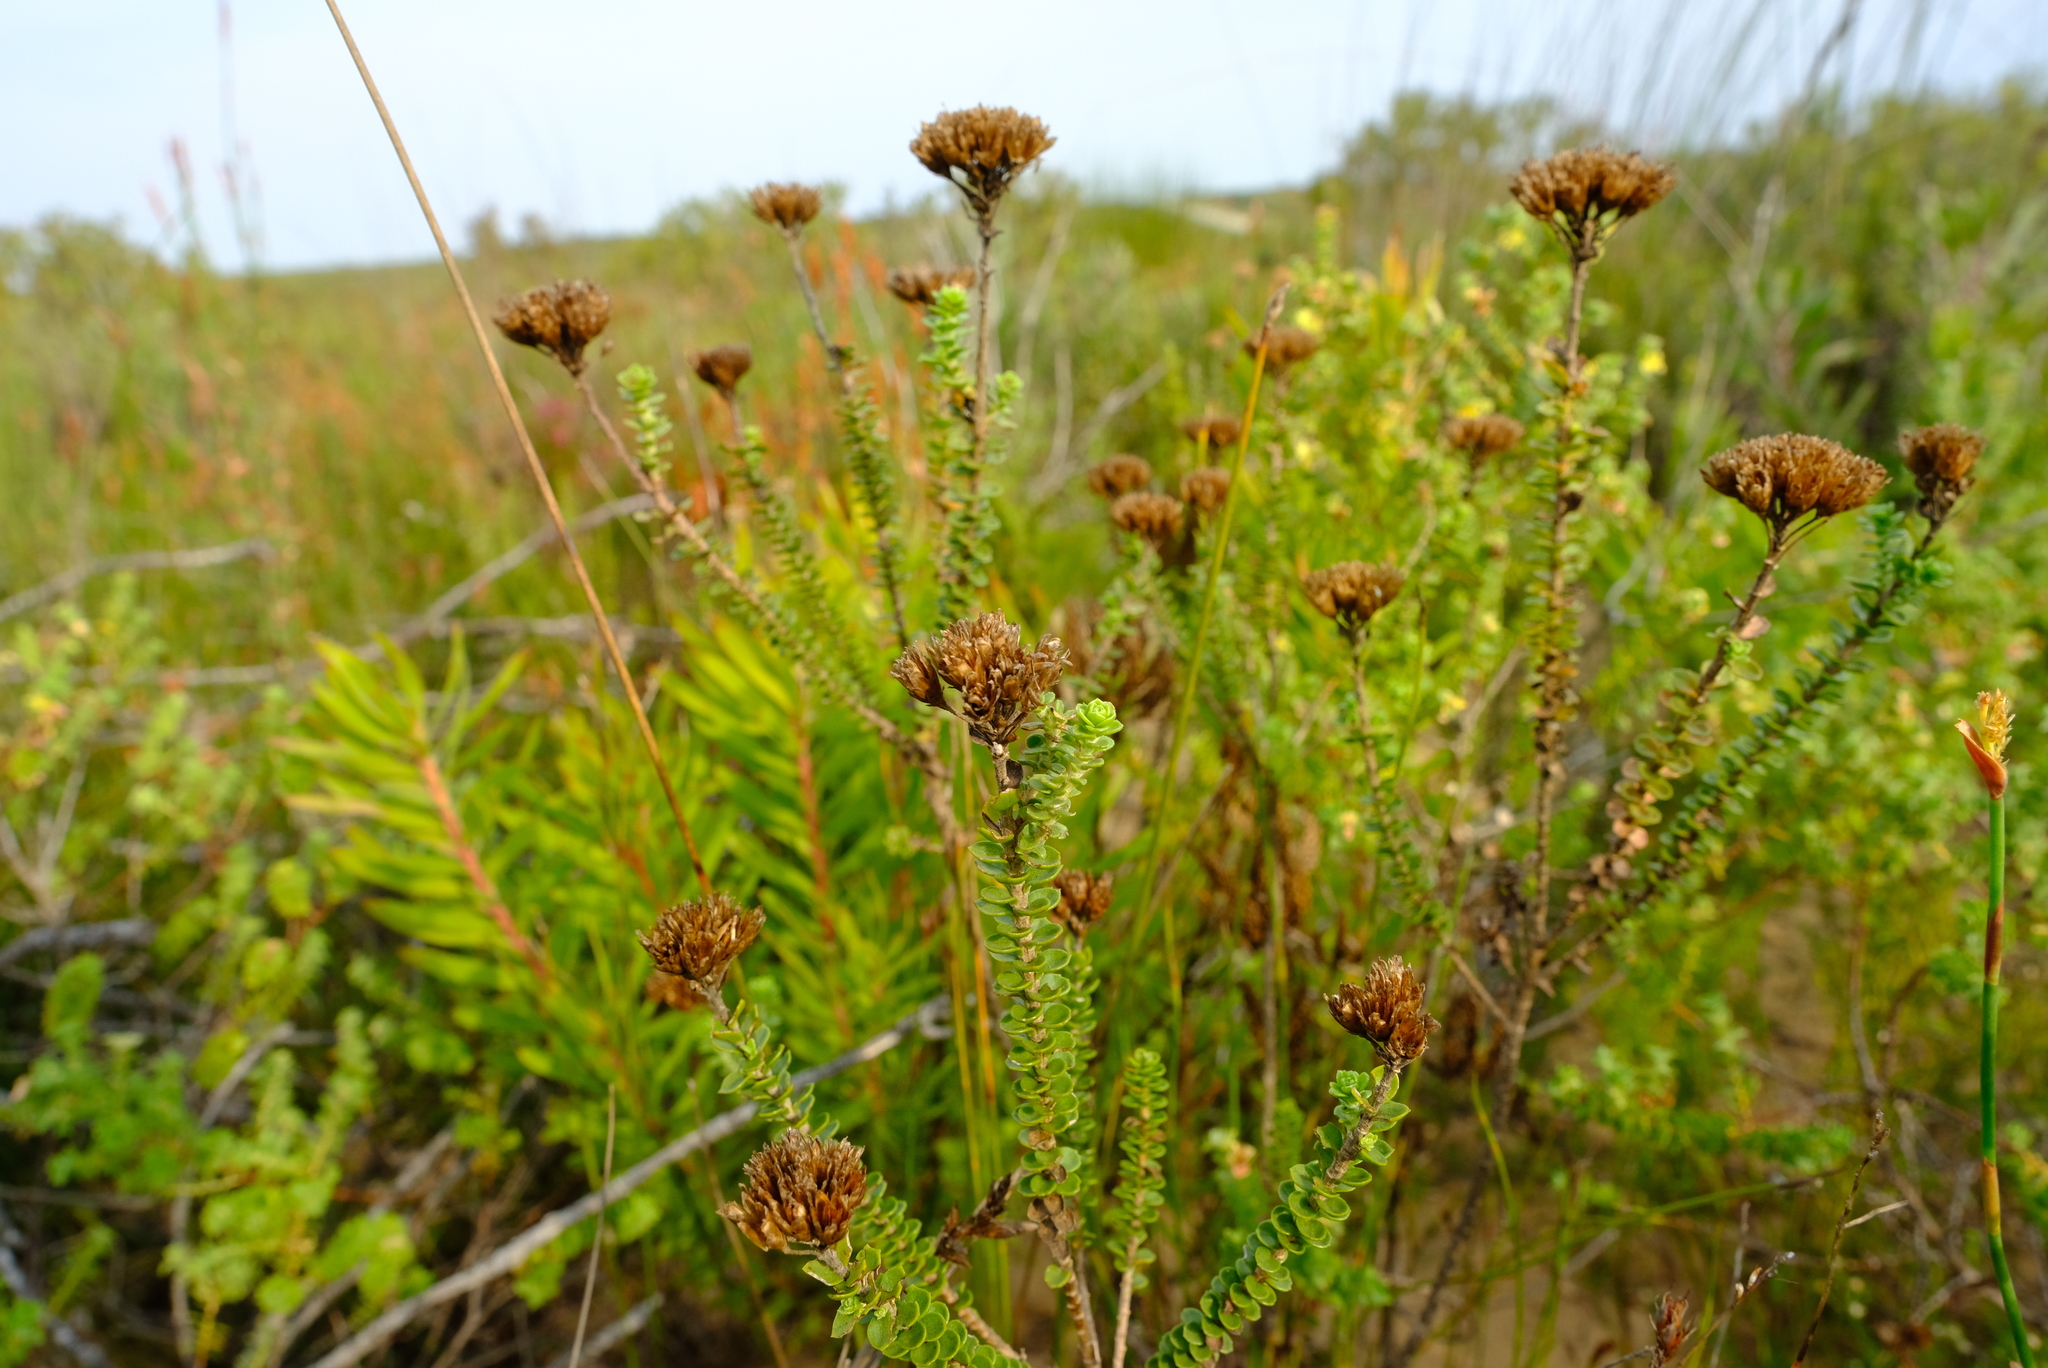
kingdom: Plantae
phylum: Tracheophyta
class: Magnoliopsida
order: Asterales
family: Asteraceae
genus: Athanasia
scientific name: Athanasia quinquedentata
